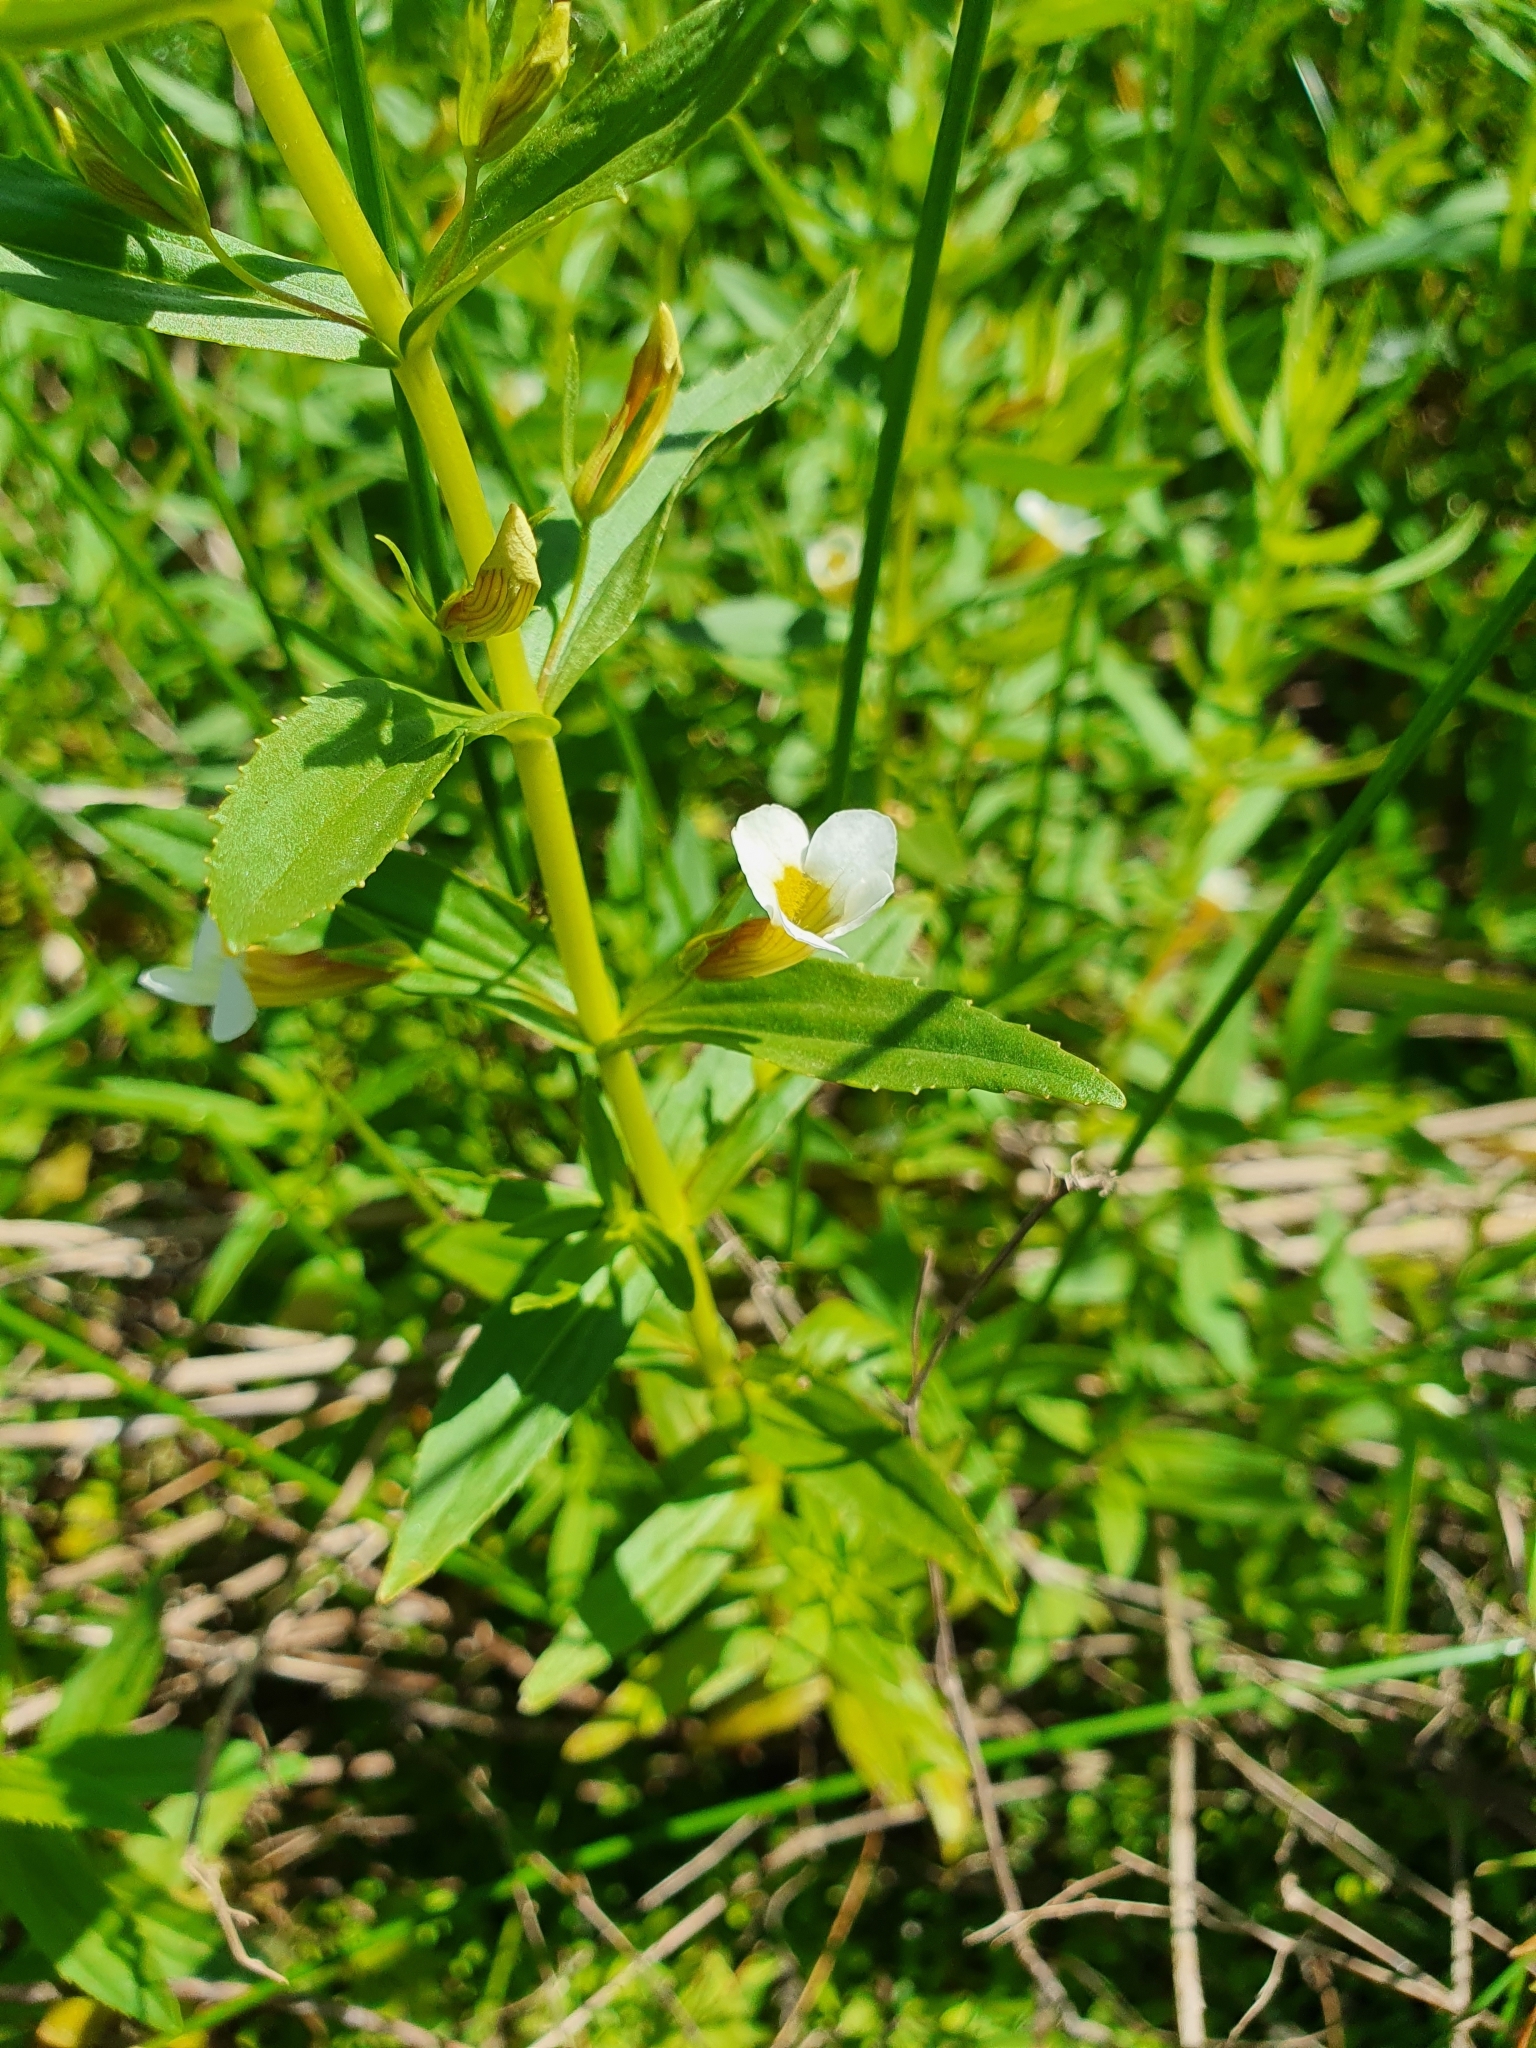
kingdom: Plantae
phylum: Tracheophyta
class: Magnoliopsida
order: Lamiales
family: Plantaginaceae
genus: Gratiola
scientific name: Gratiola officinalis
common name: Gratiola
